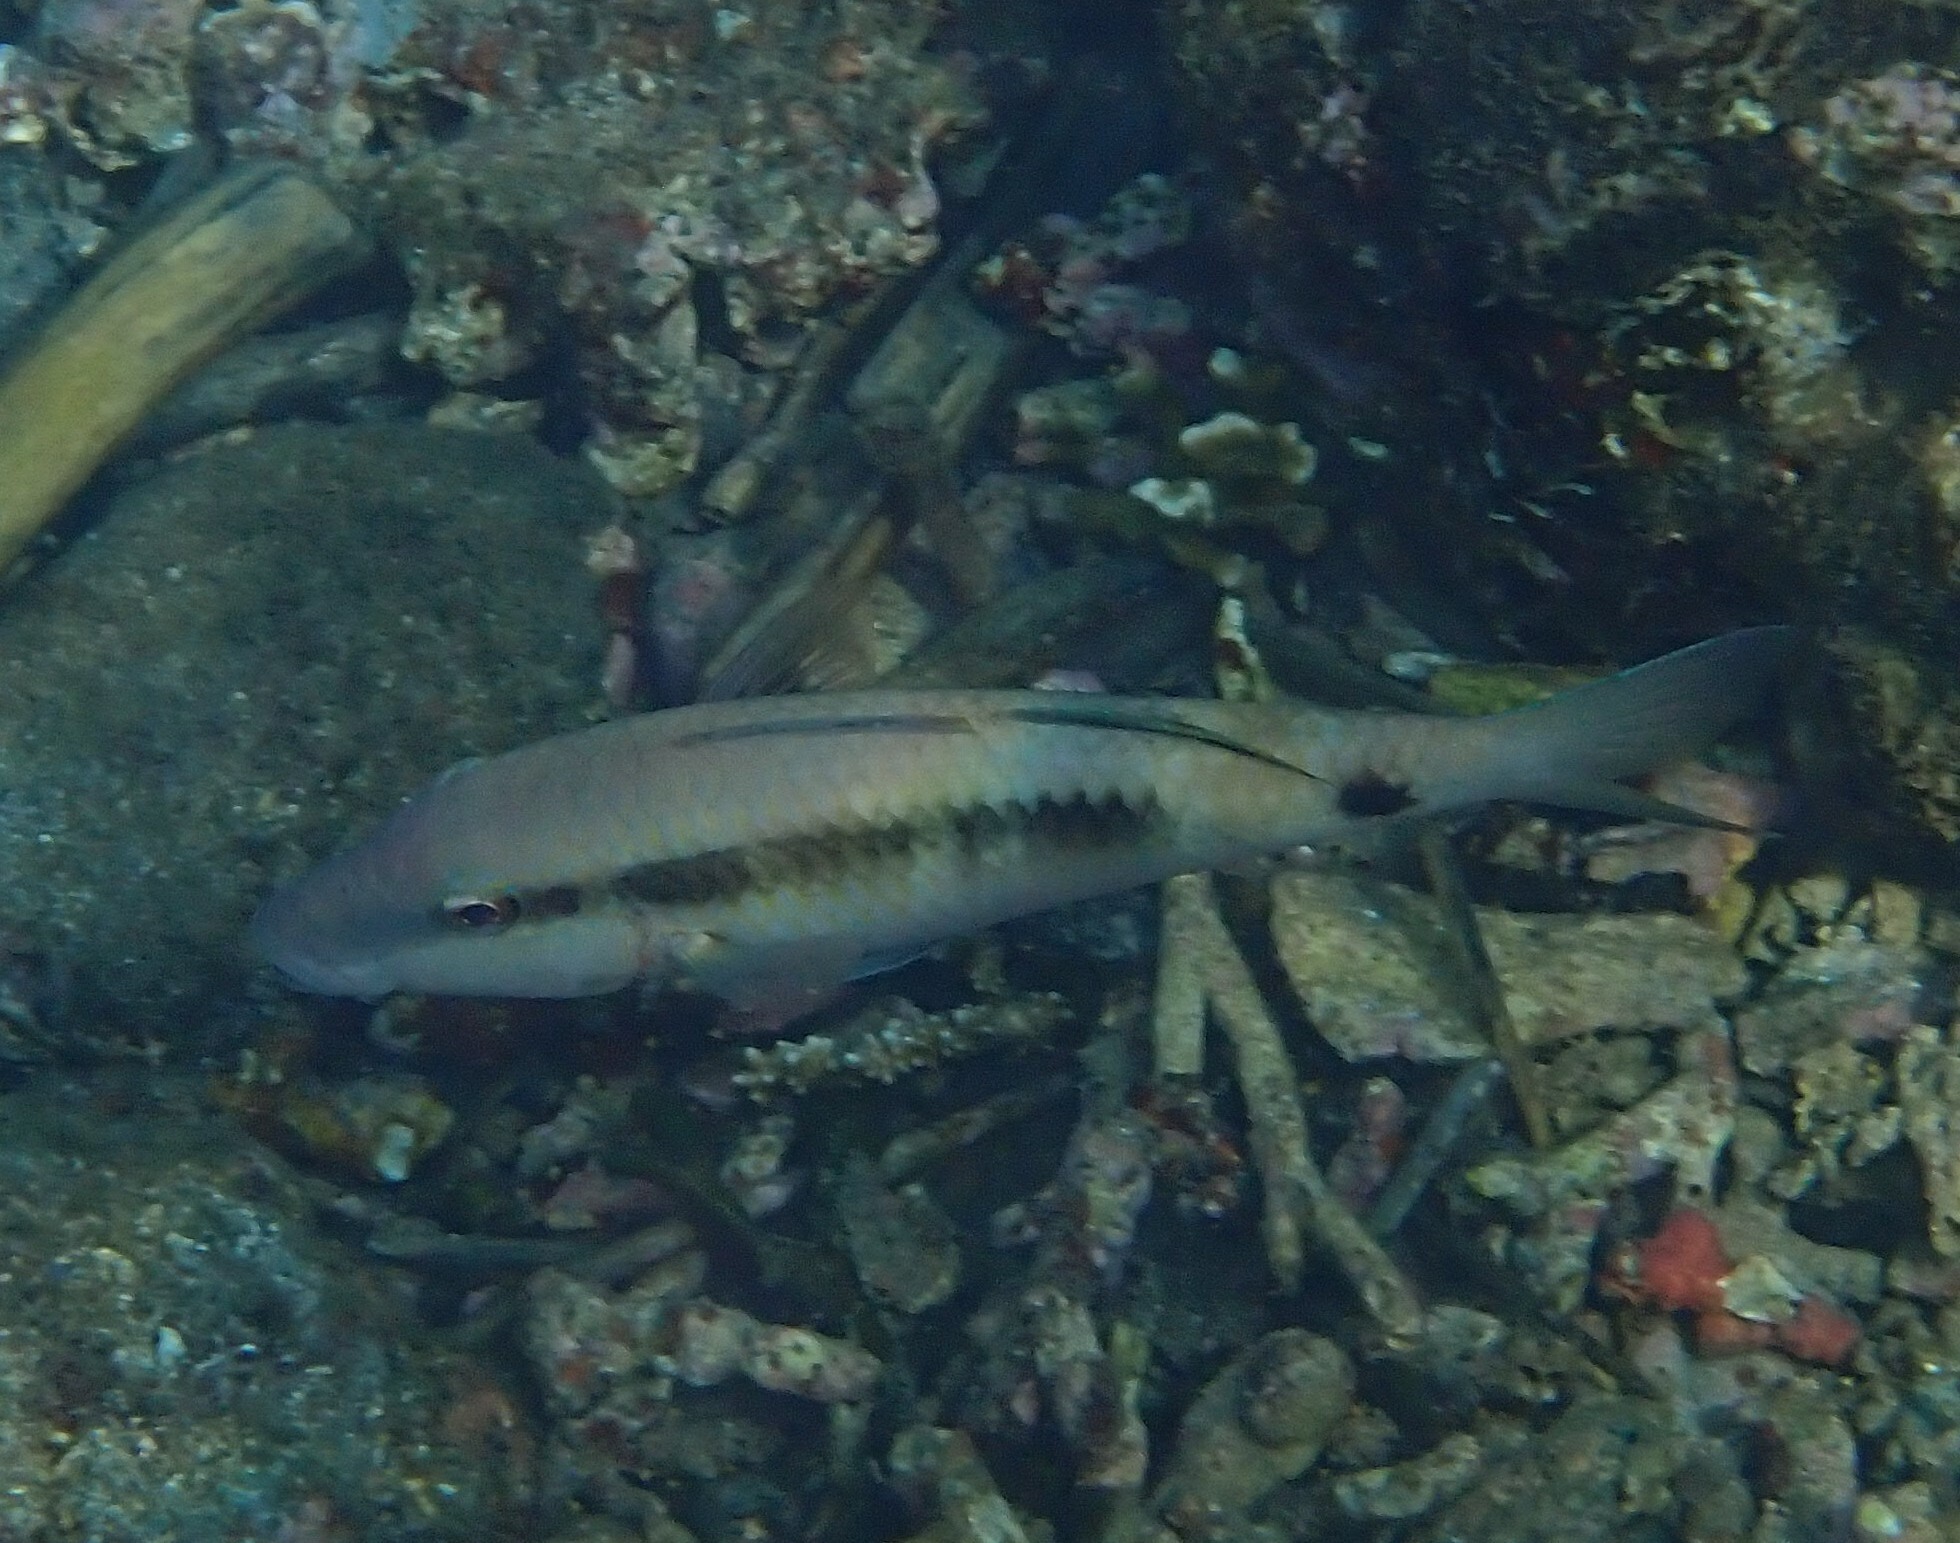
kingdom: Animalia
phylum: Chordata
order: Perciformes
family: Mullidae
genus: Parupeneus
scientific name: Parupeneus macronemus
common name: Long-barbel goatfish
